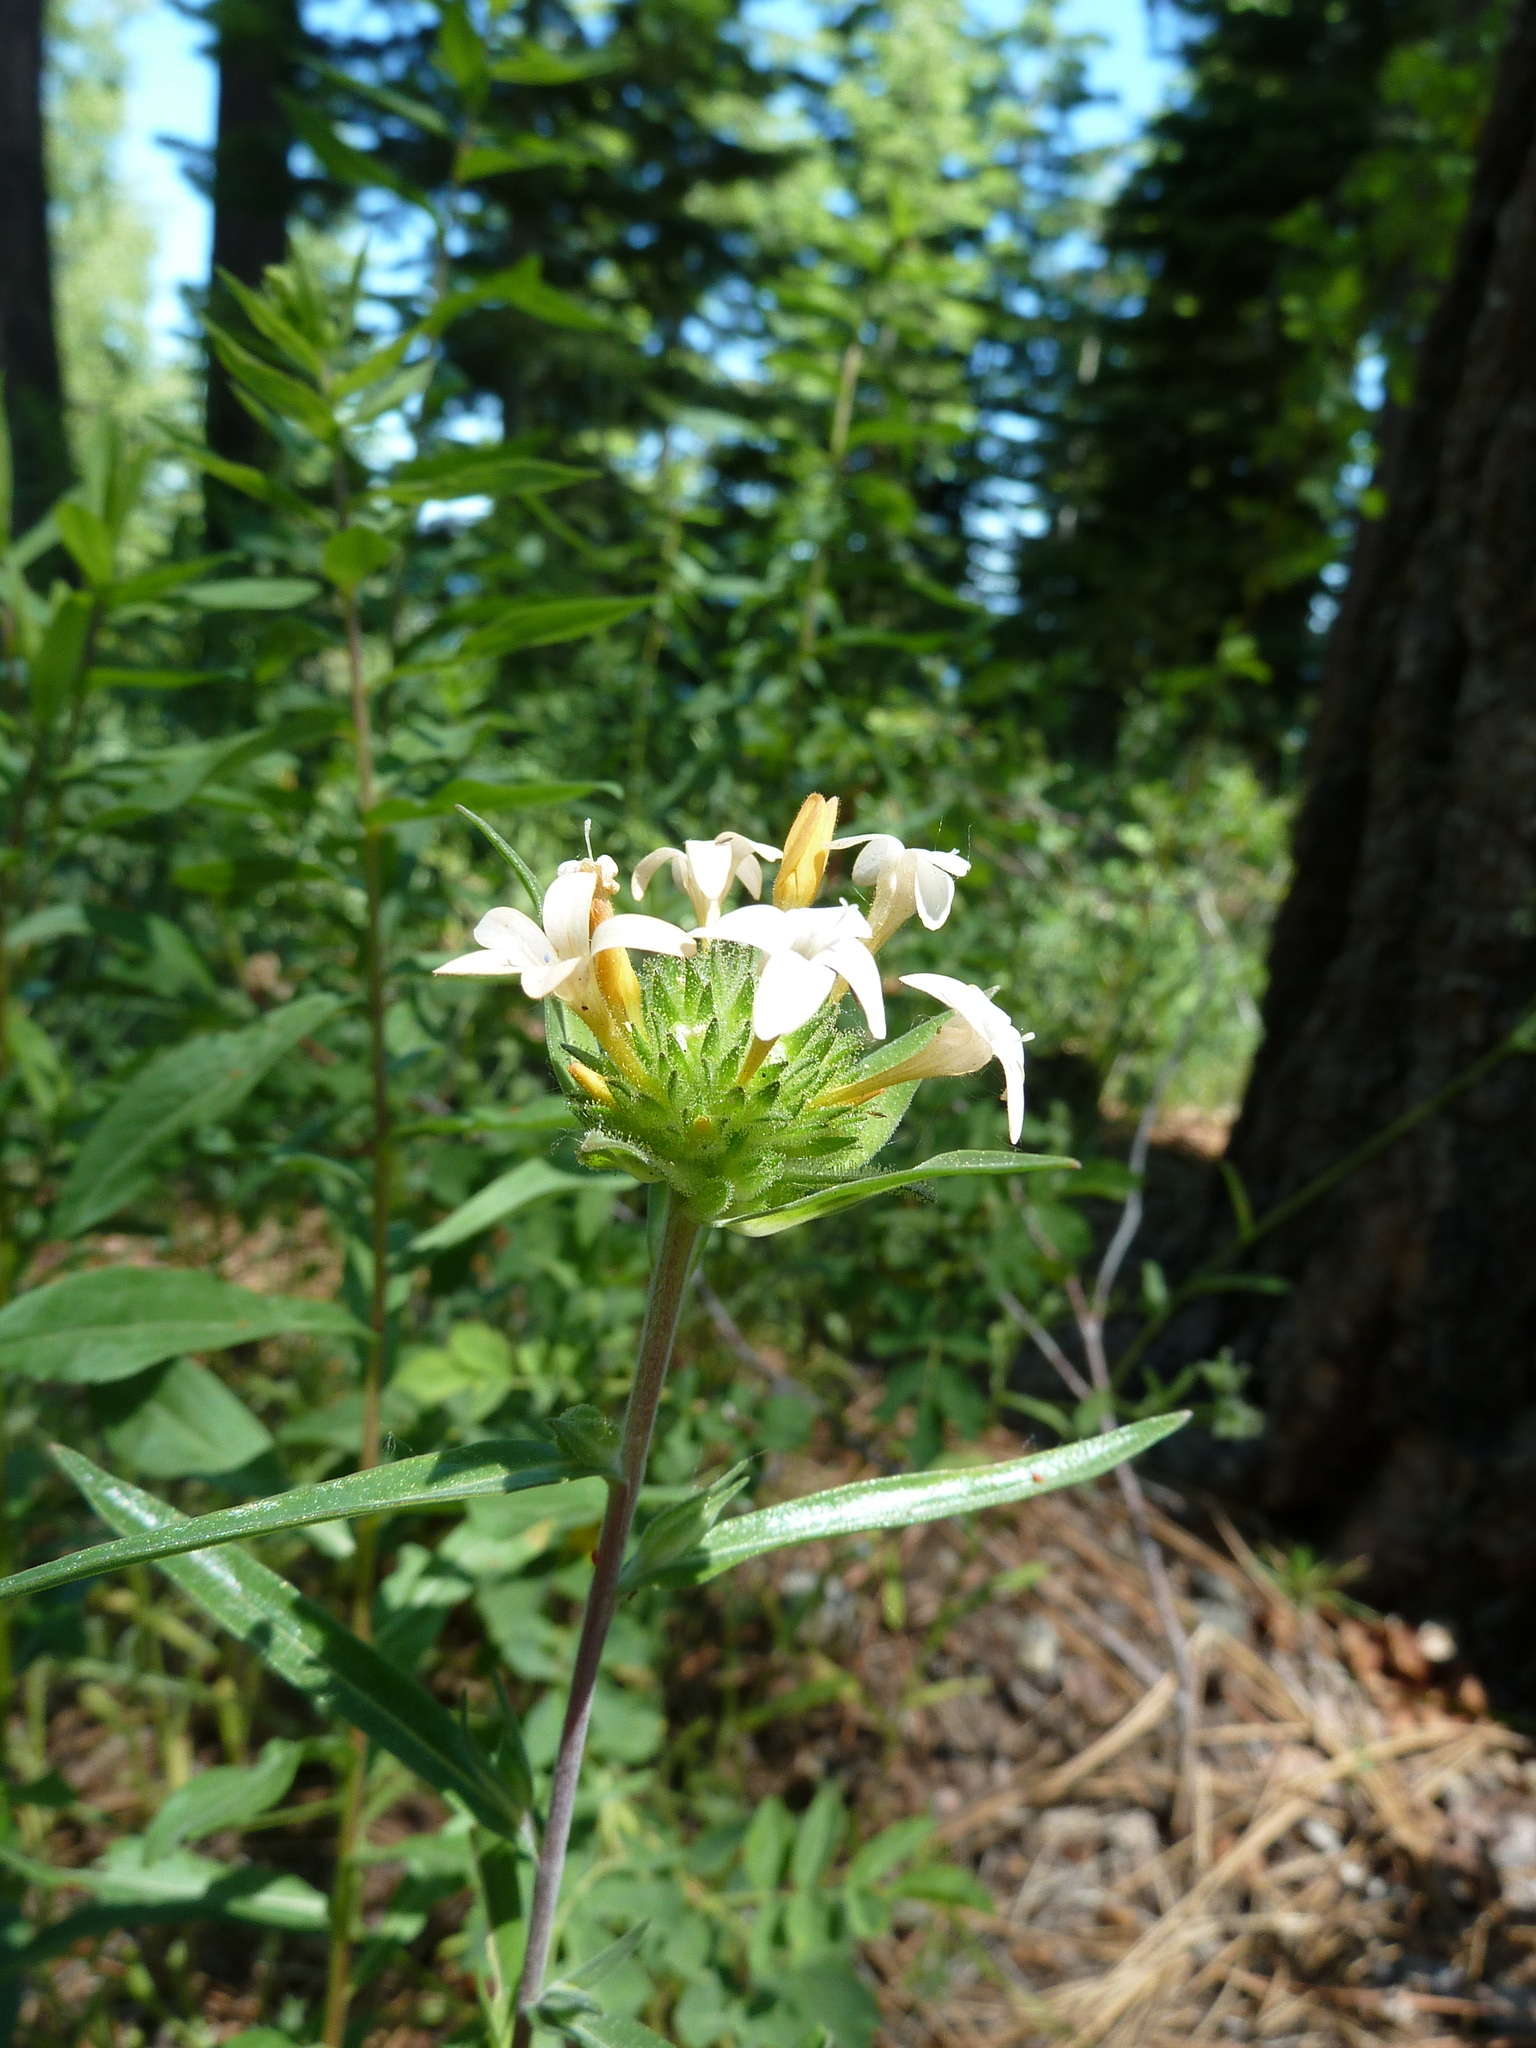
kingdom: Plantae
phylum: Tracheophyta
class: Magnoliopsida
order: Ericales
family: Polemoniaceae
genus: Collomia
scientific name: Collomia grandiflora
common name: California strawflower
